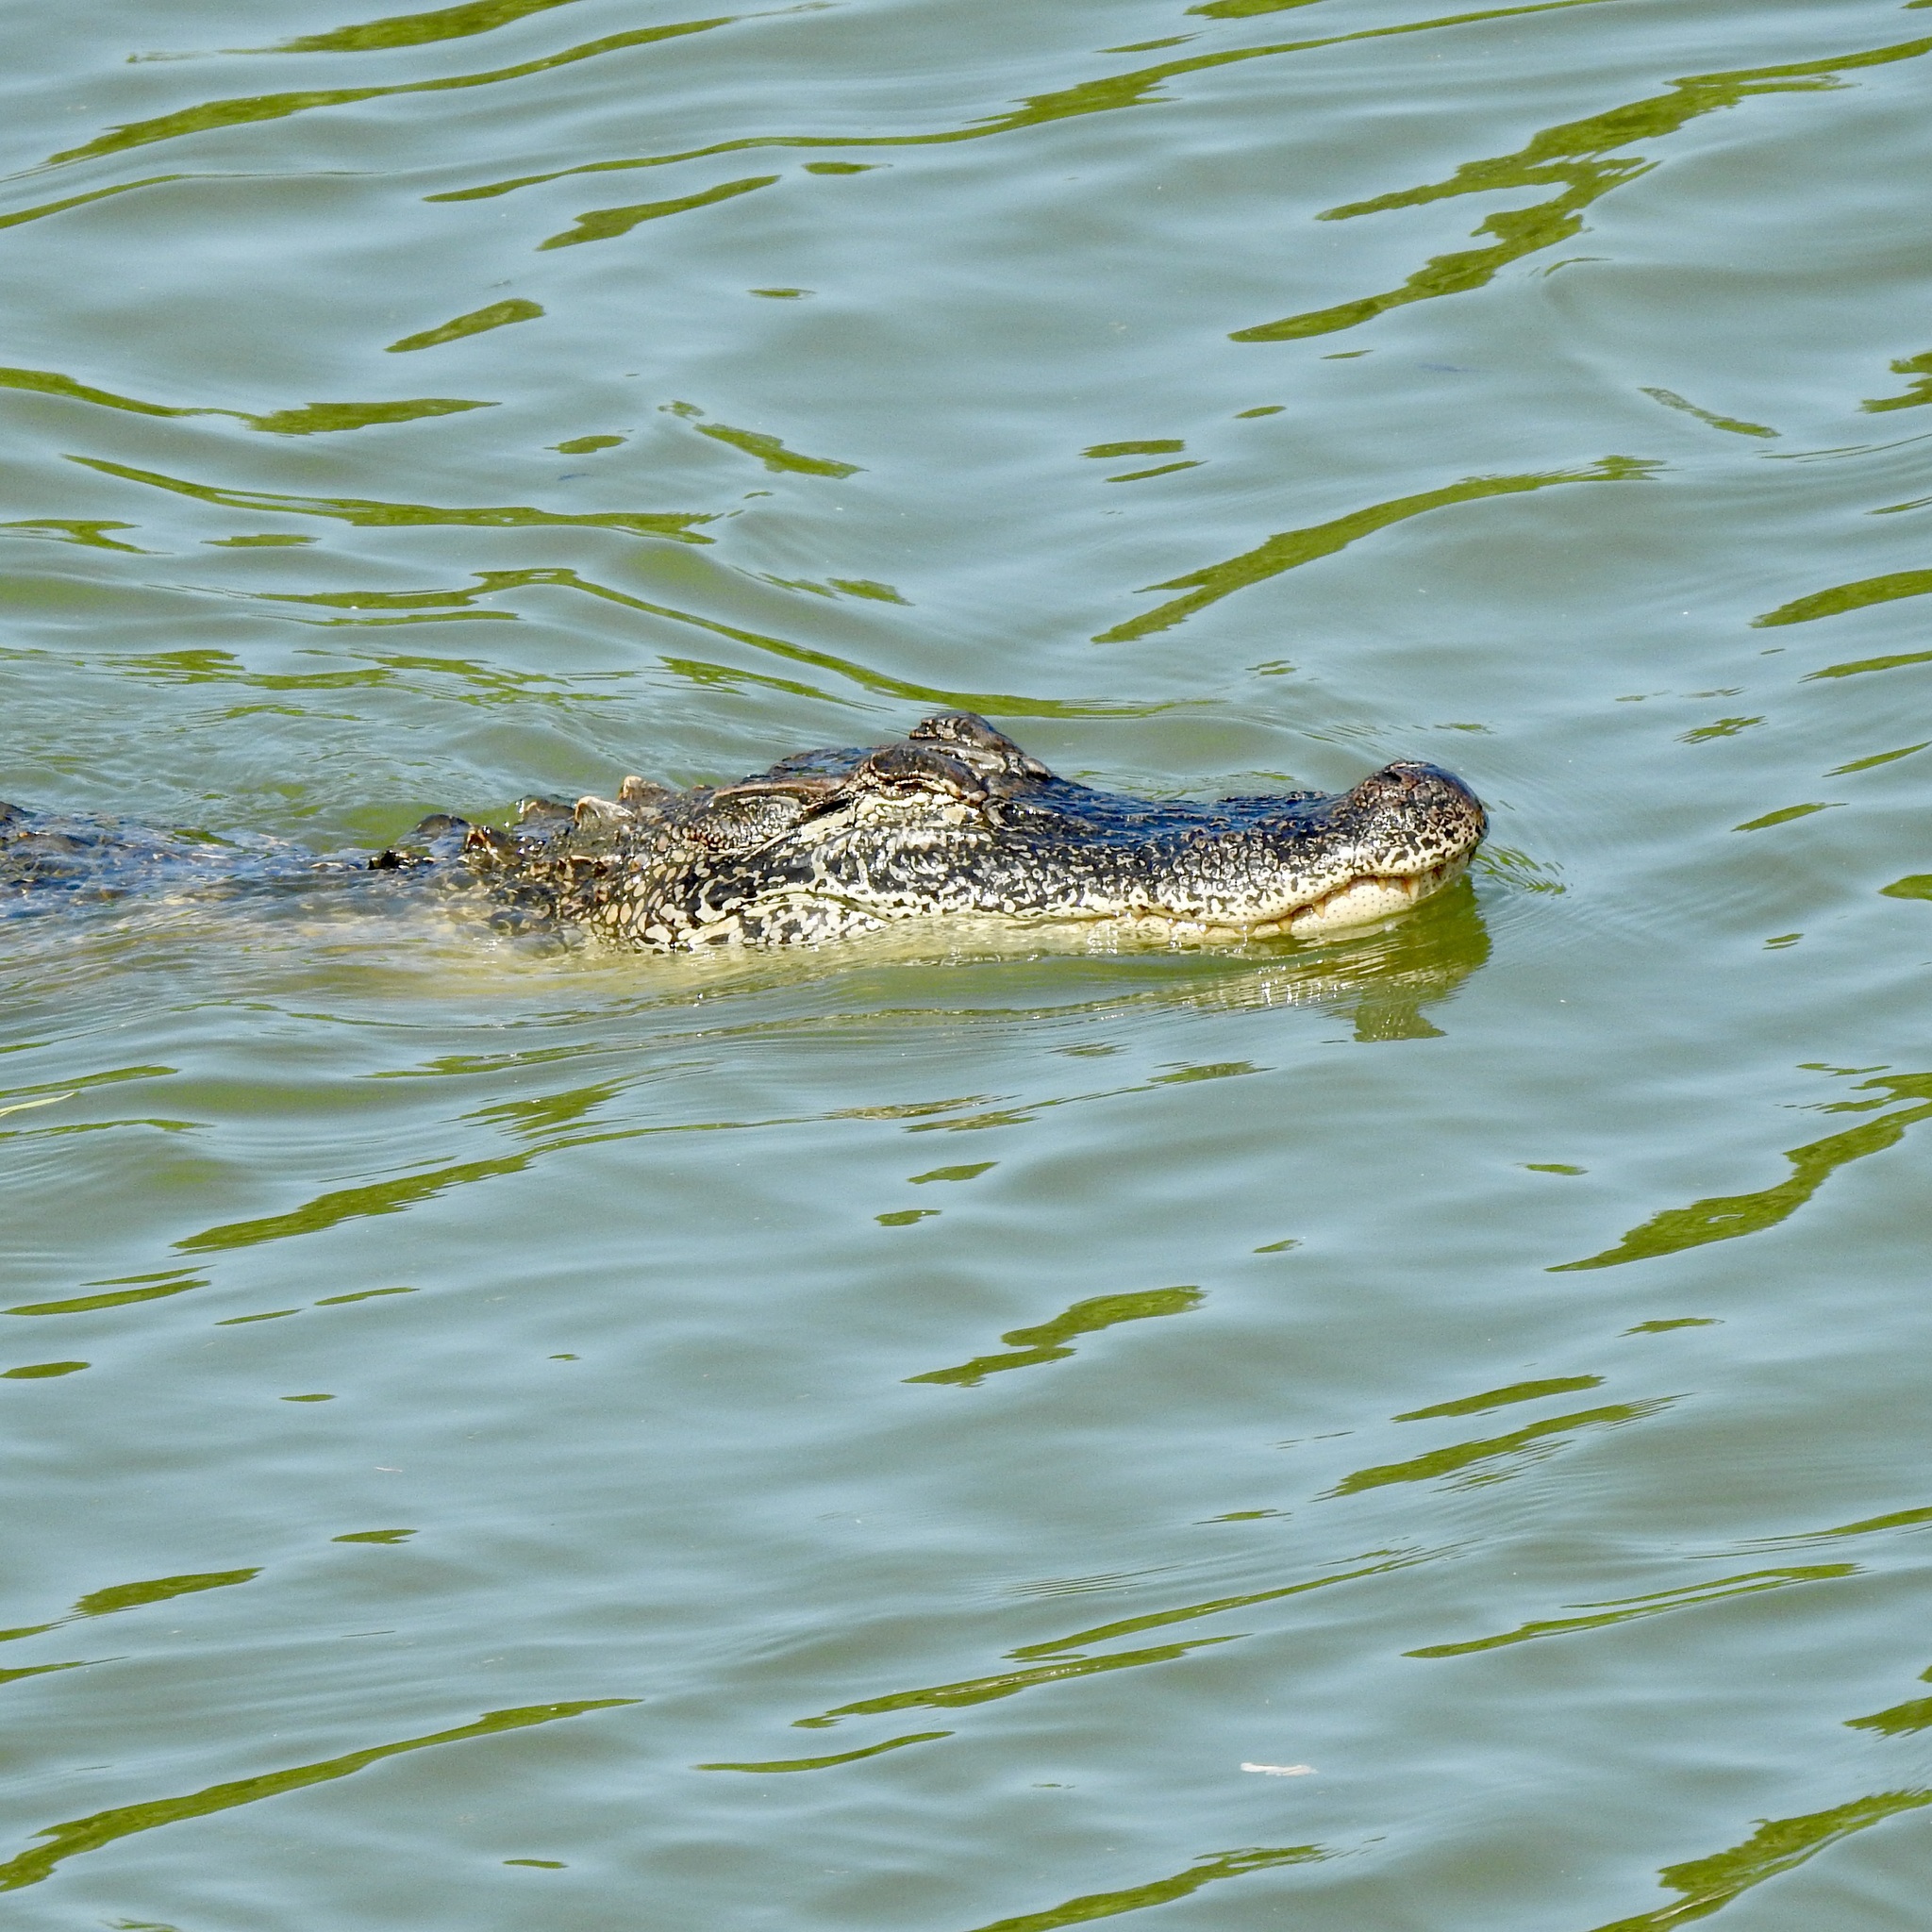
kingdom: Animalia
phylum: Chordata
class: Crocodylia
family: Alligatoridae
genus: Alligator
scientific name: Alligator mississippiensis
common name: American alligator
